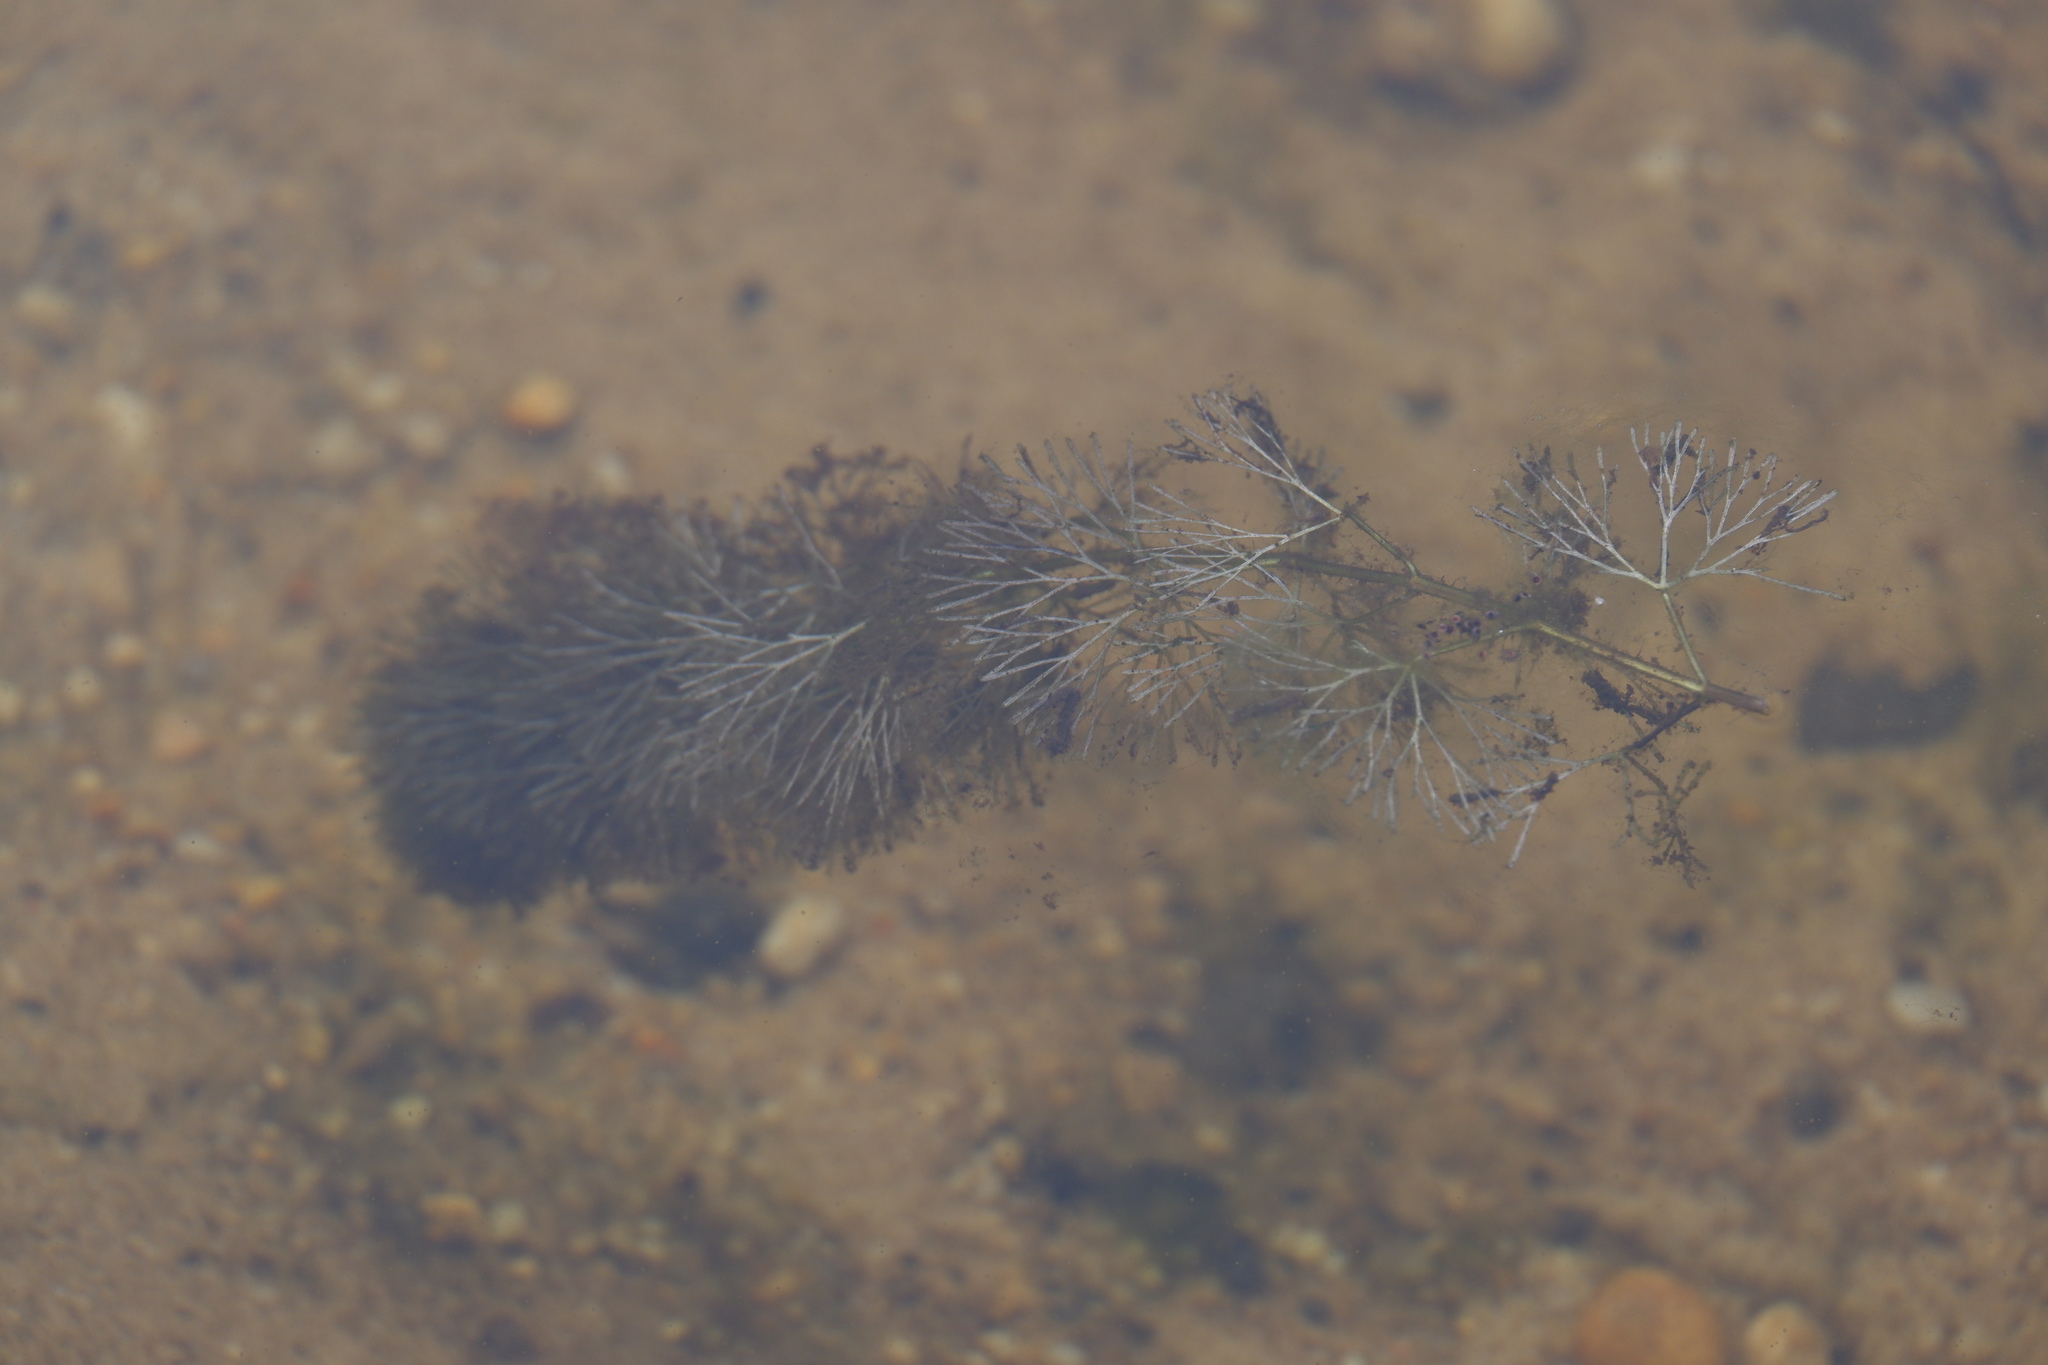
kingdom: Plantae
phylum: Tracheophyta
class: Magnoliopsida
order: Nymphaeales
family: Cabombaceae
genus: Cabomba
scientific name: Cabomba caroliniana
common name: Fanwort
